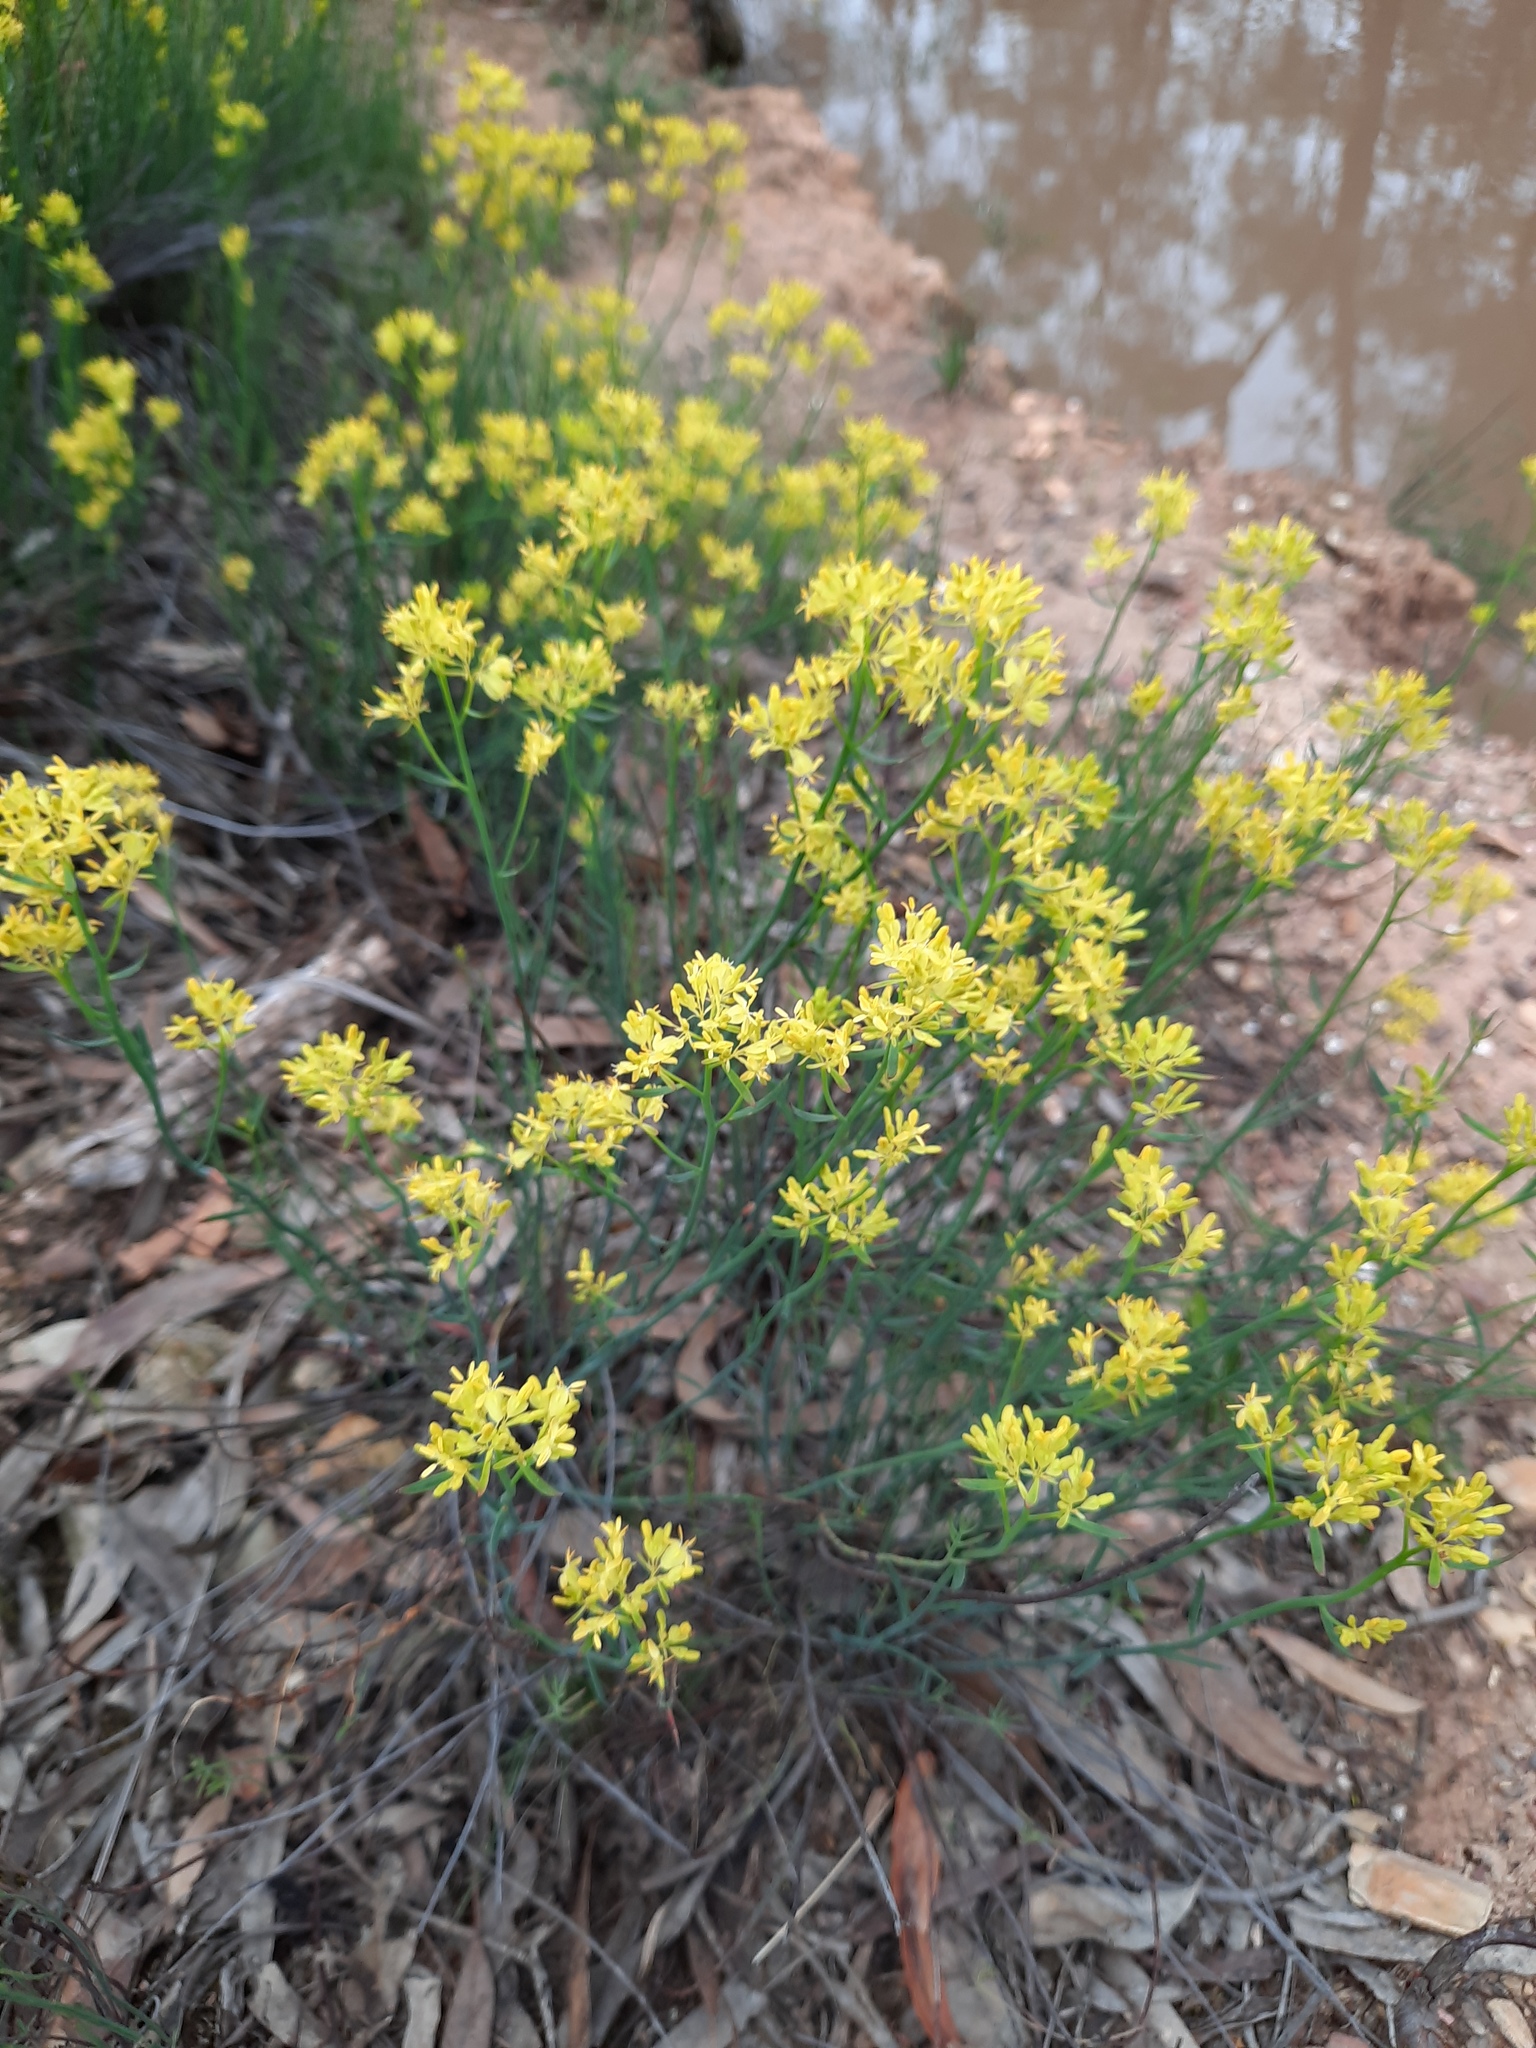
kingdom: Plantae
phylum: Tracheophyta
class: Magnoliopsida
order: Saxifragales
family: Haloragaceae
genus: Glischrocaryon
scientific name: Glischrocaryon behrii
